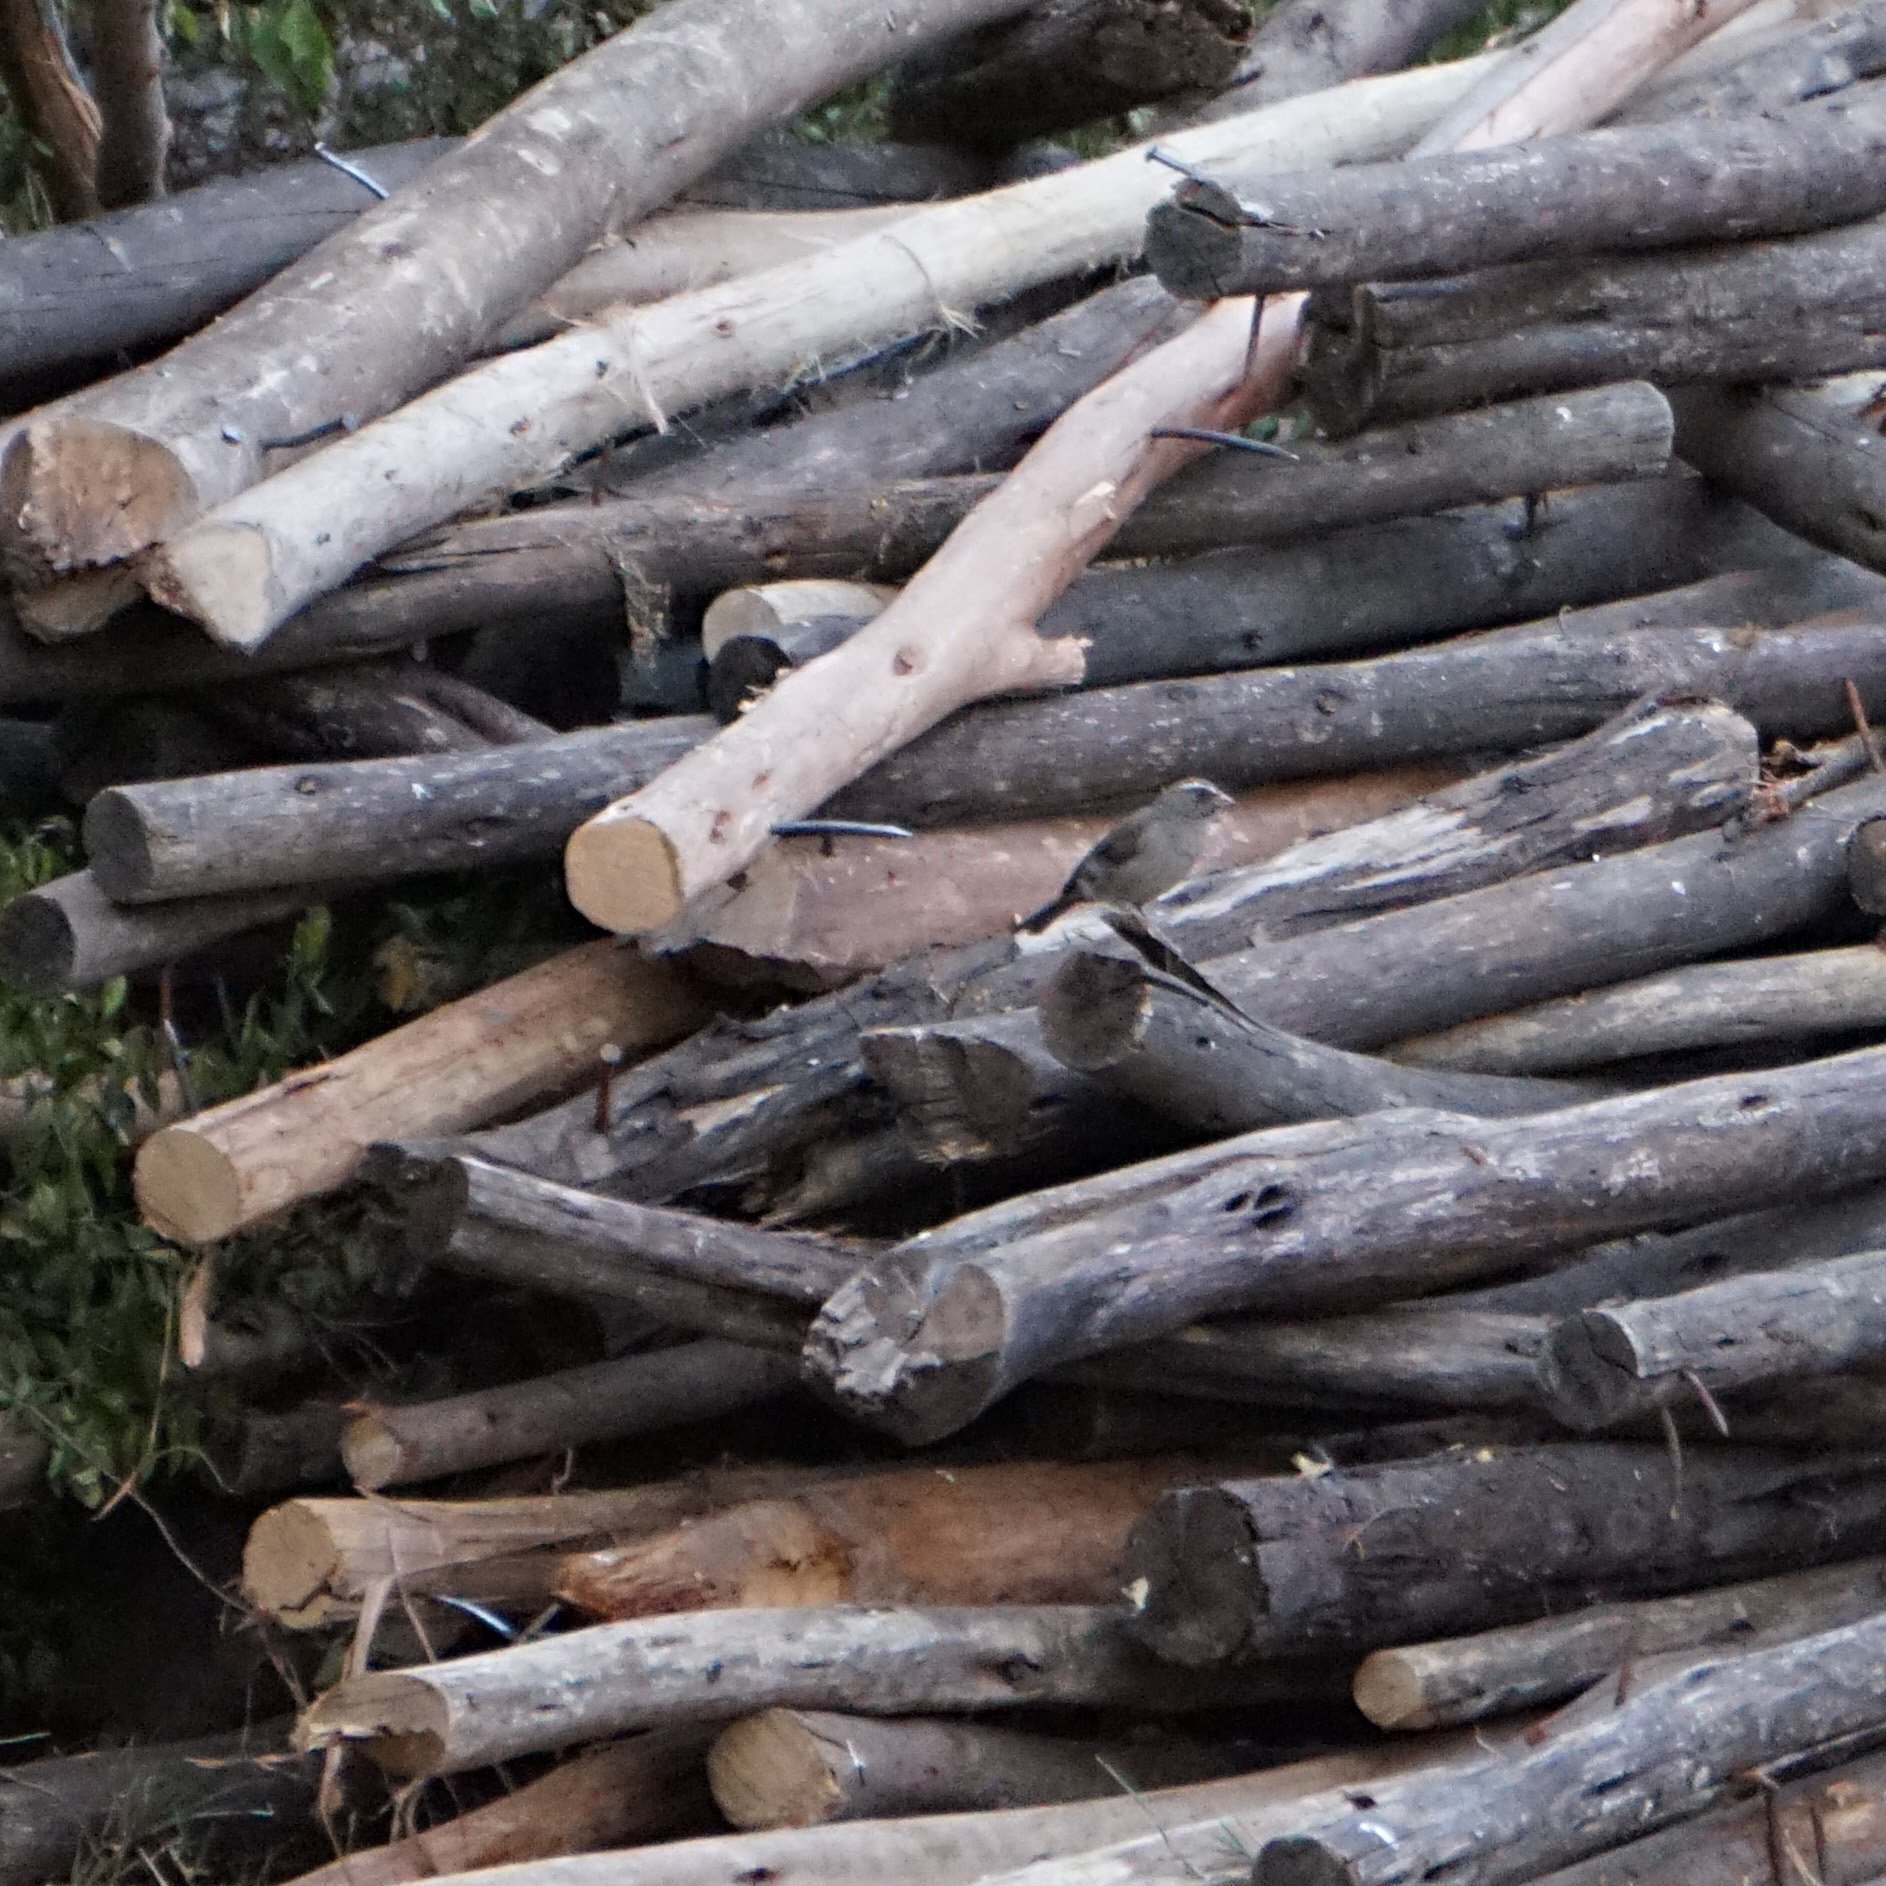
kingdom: Animalia
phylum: Chordata
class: Aves
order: Passeriformes
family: Fringillidae
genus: Crithagra
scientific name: Crithagra tristriata
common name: Brown-rumped seedeater
